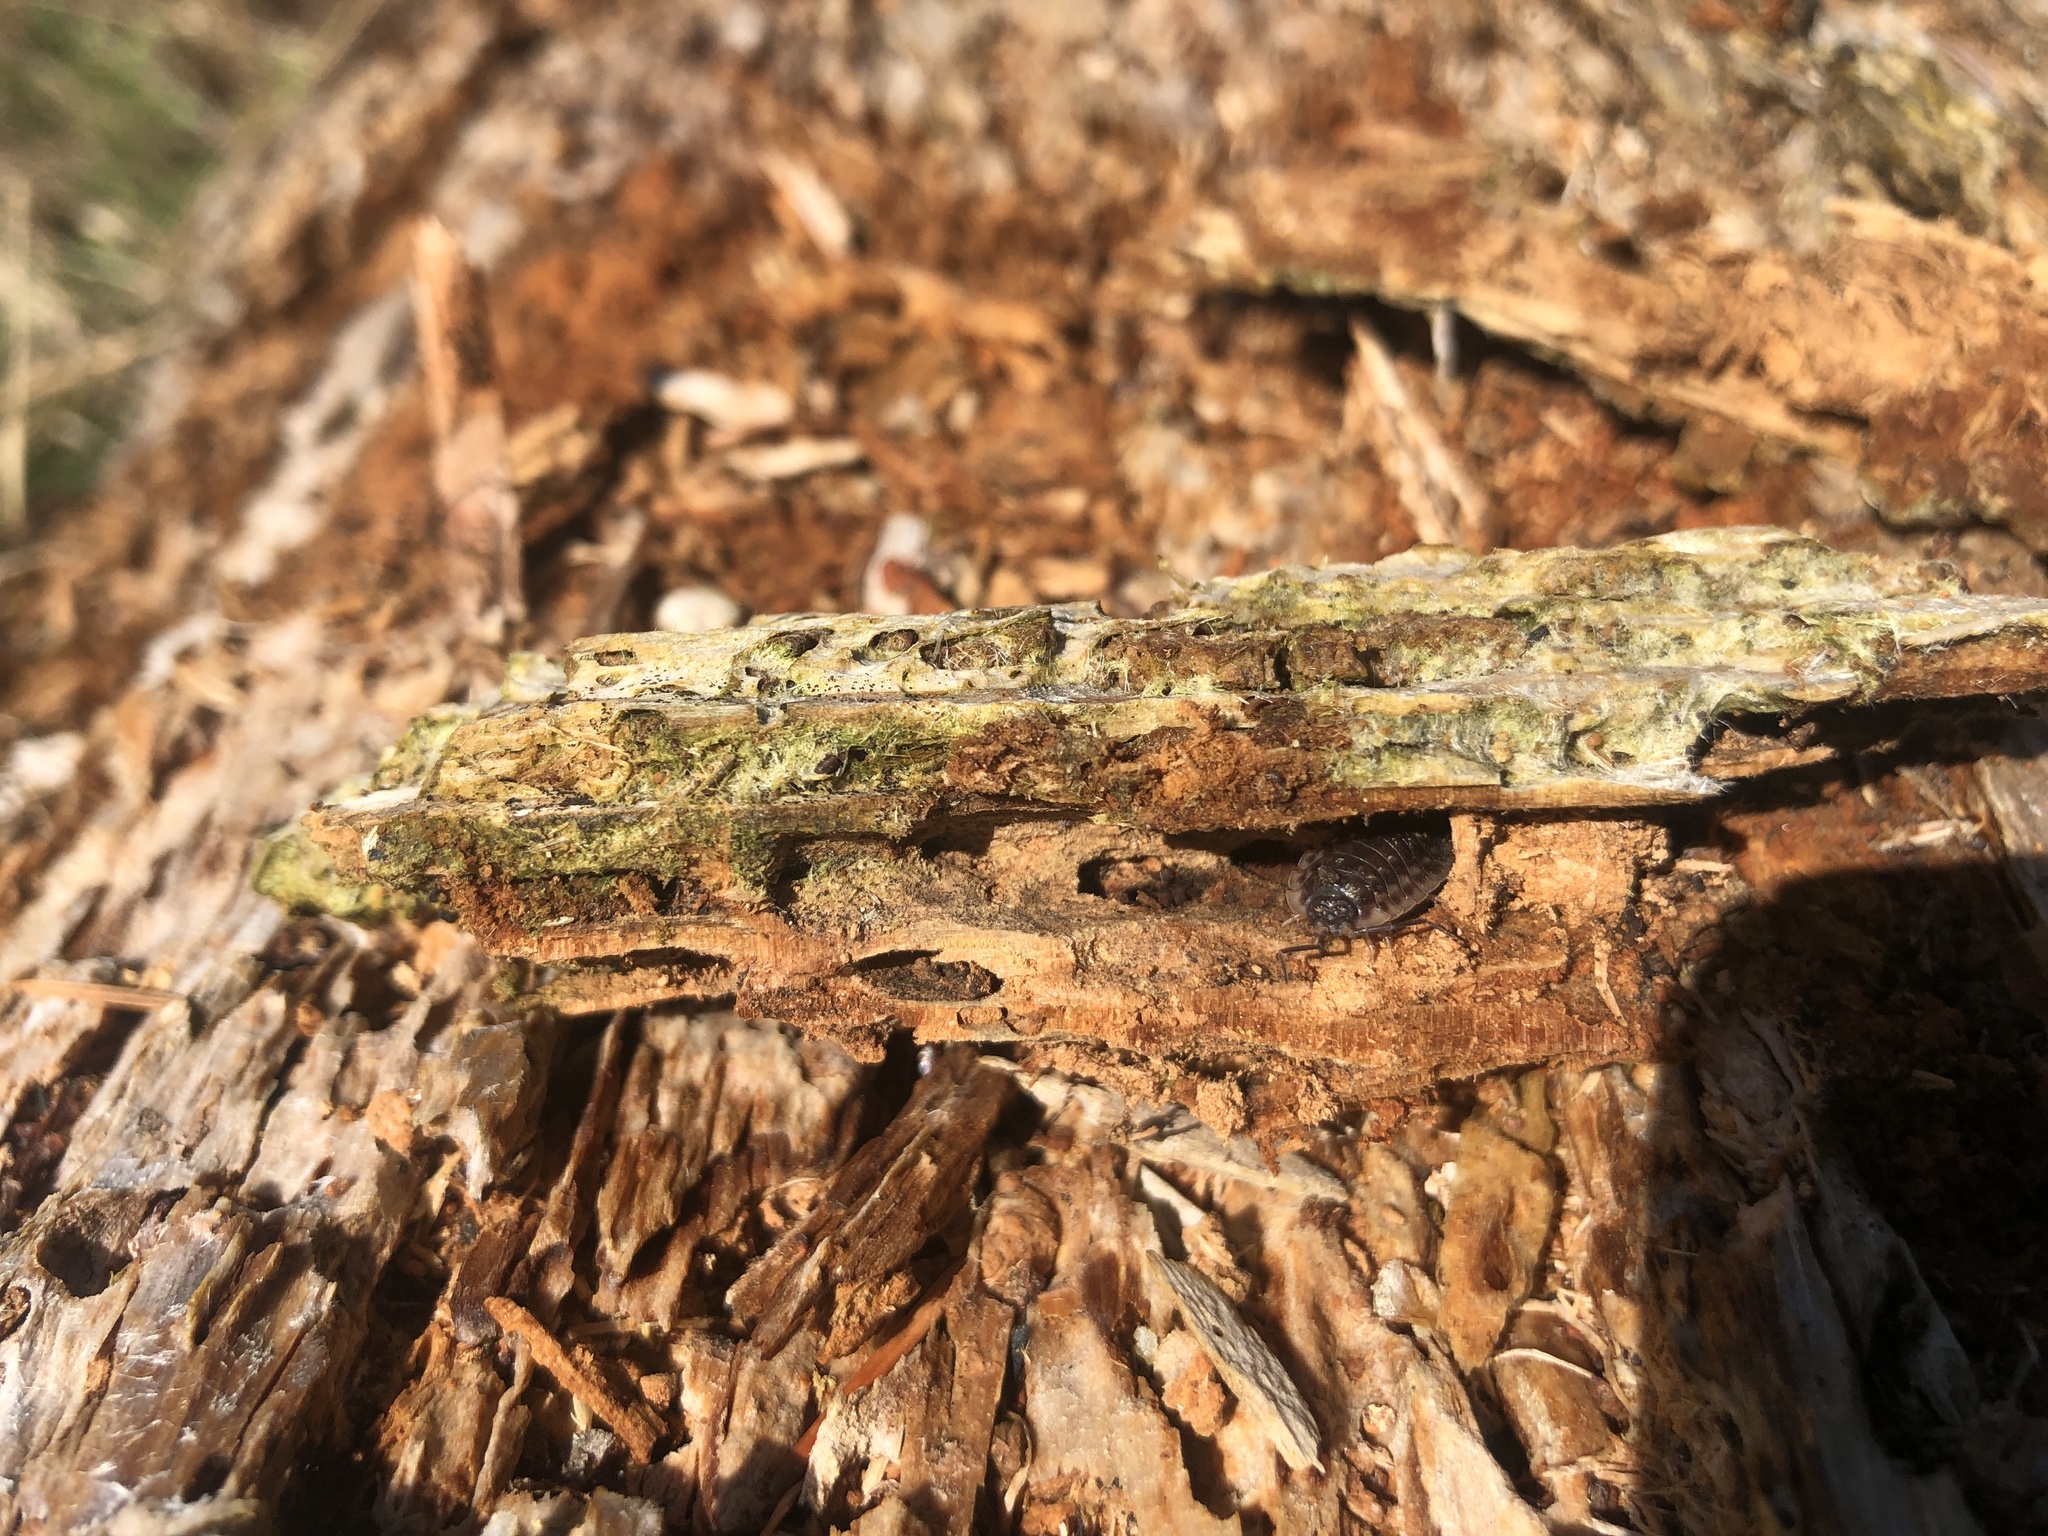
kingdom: Animalia
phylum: Arthropoda
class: Malacostraca
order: Isopoda
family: Oniscidae
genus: Oniscus
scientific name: Oniscus asellus
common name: Common shiny woodlouse
